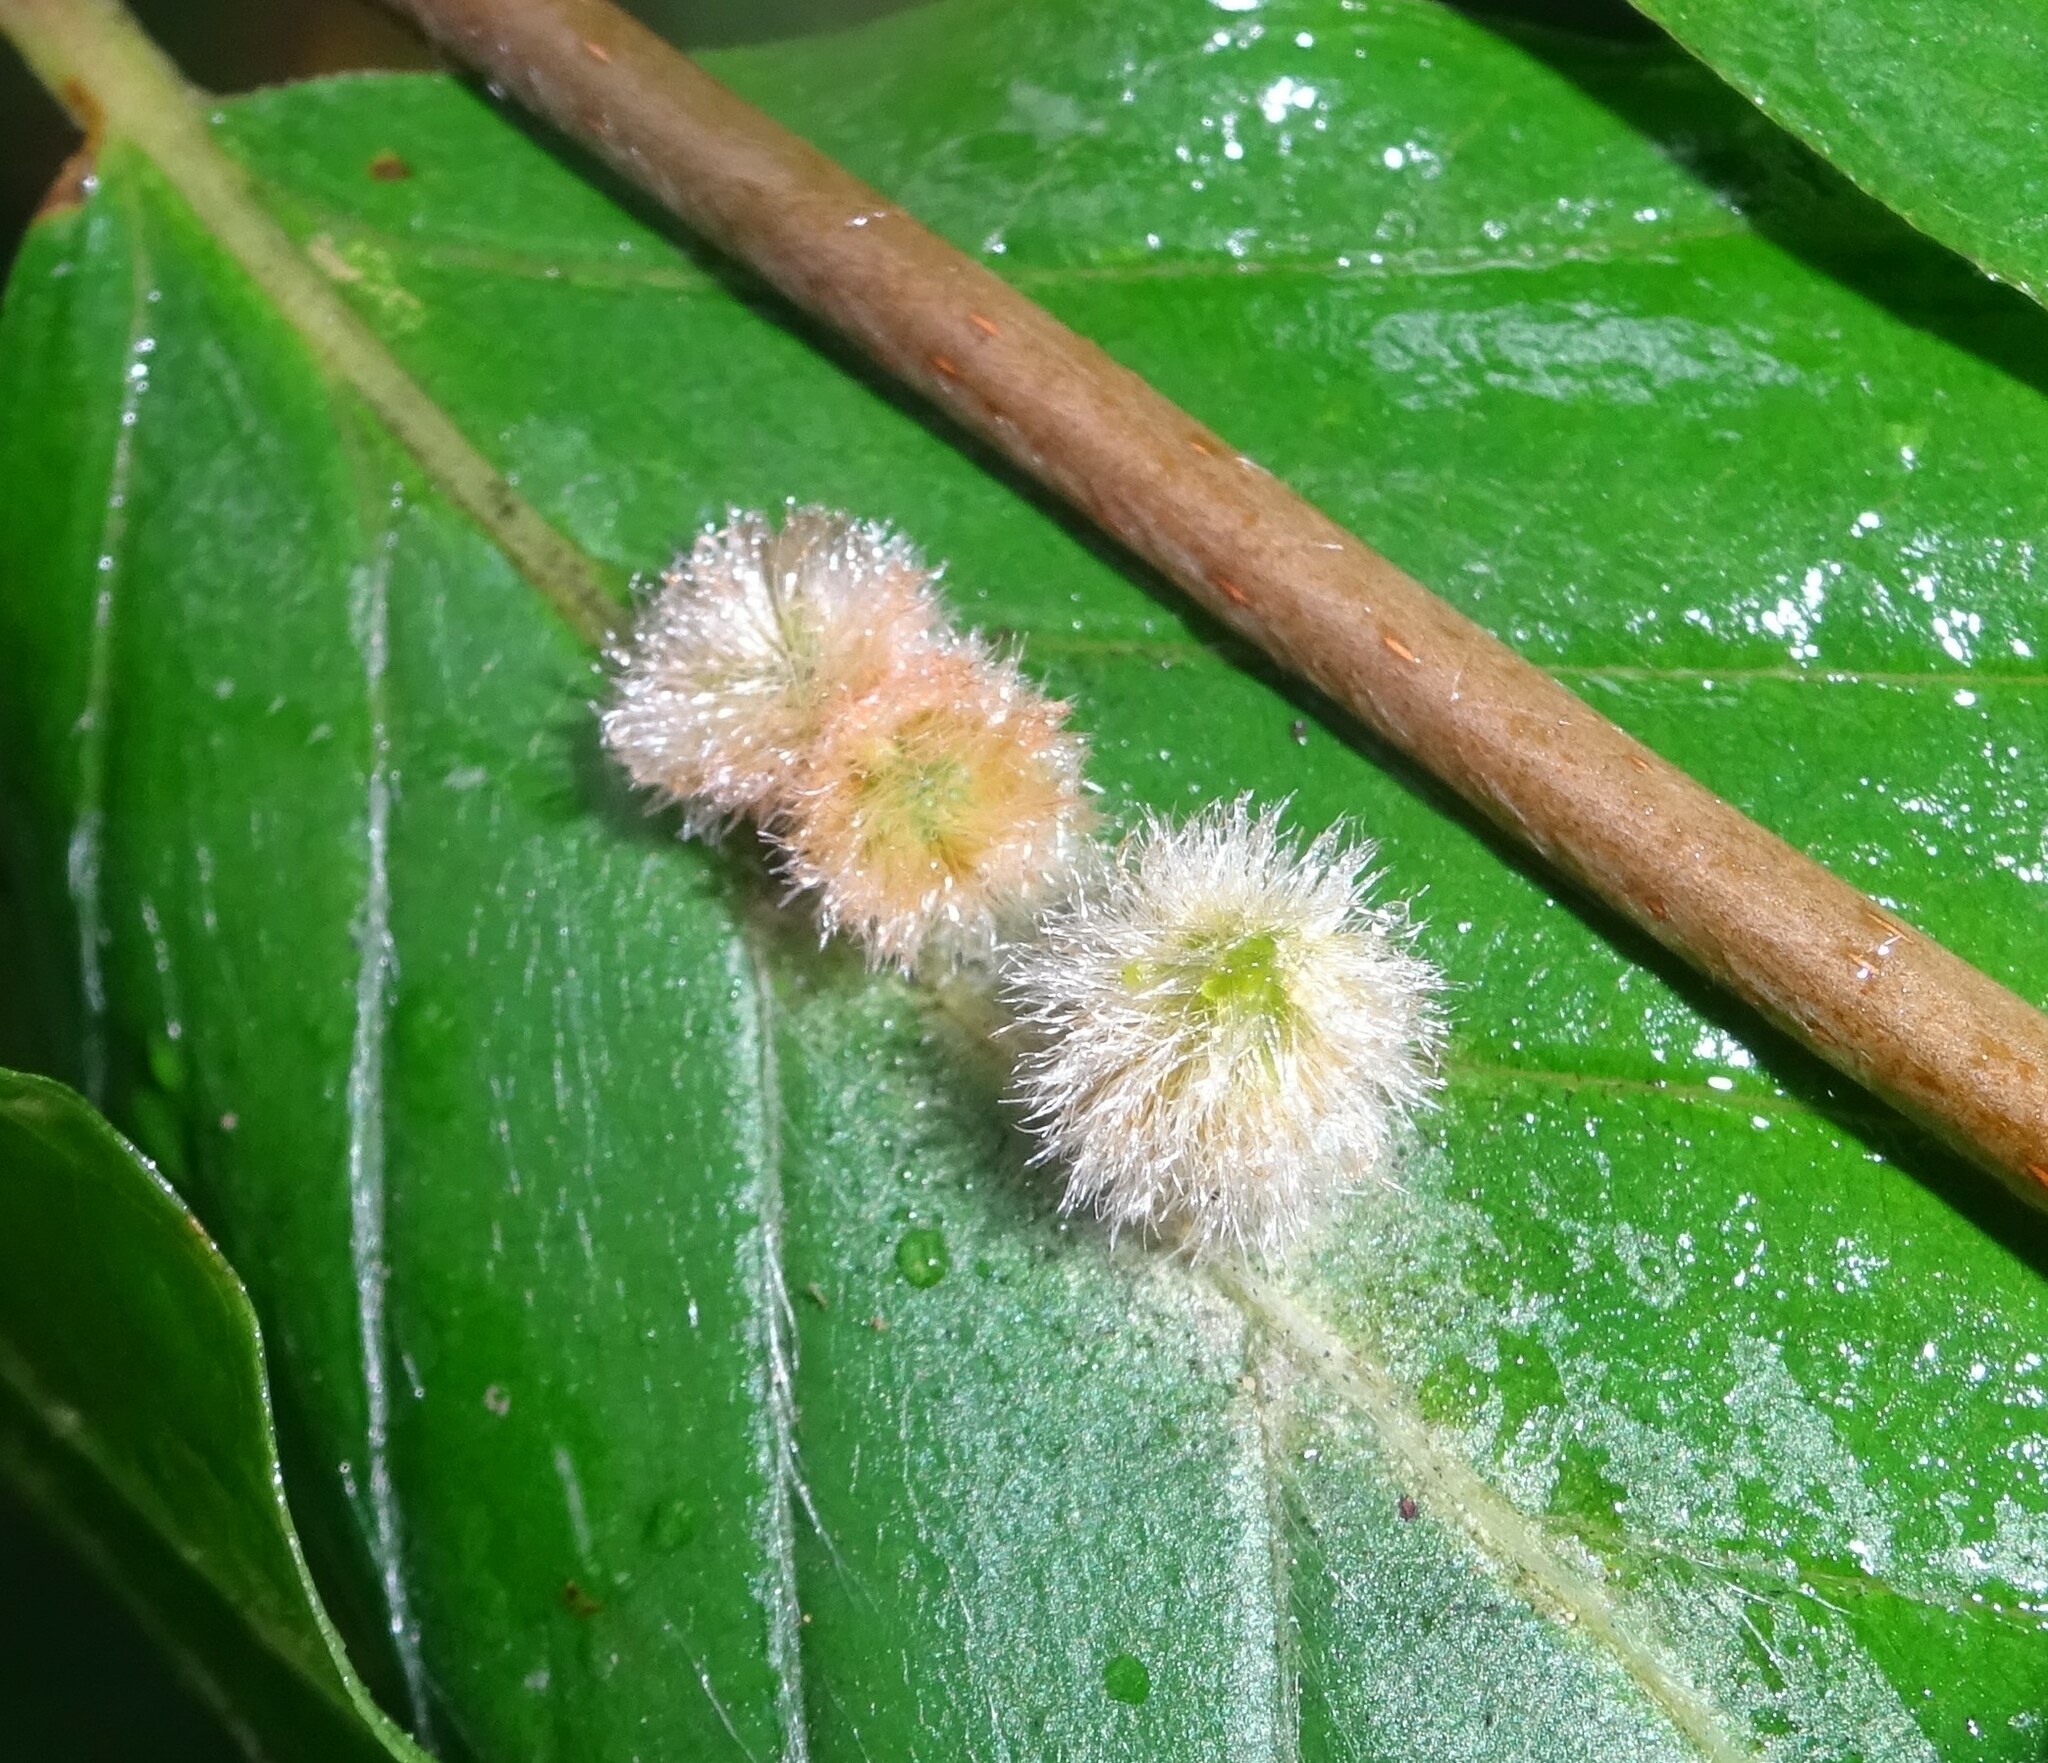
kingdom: Animalia
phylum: Arthropoda
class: Insecta
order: Diptera
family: Cecidomyiidae
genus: Hartigiola
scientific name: Hartigiola annulipes
